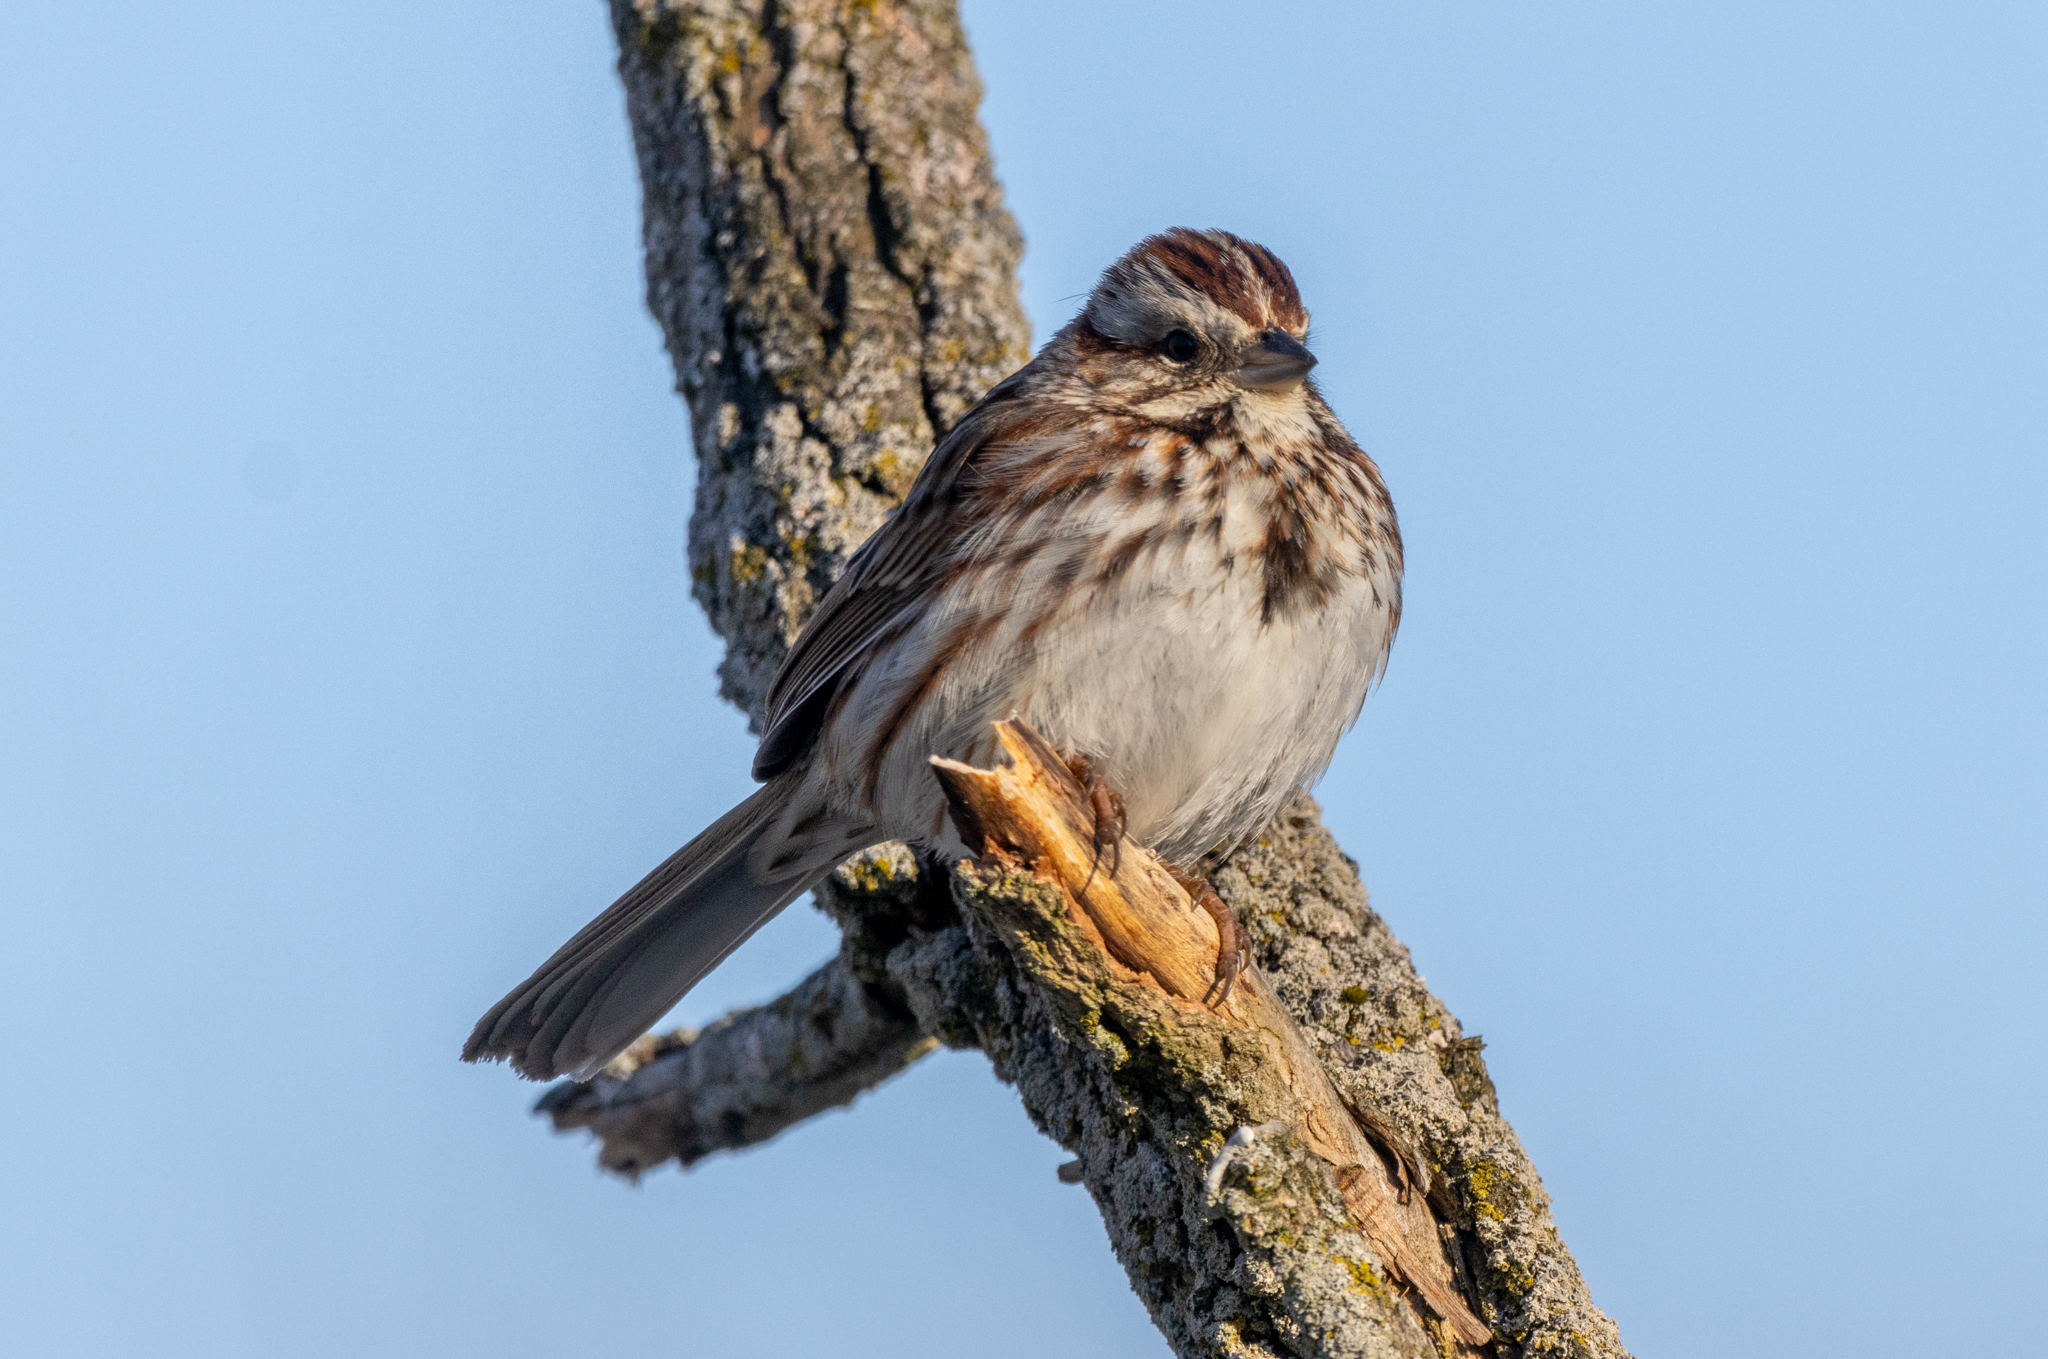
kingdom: Animalia
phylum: Chordata
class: Aves
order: Passeriformes
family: Passerellidae
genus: Melospiza
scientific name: Melospiza melodia
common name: Song sparrow
